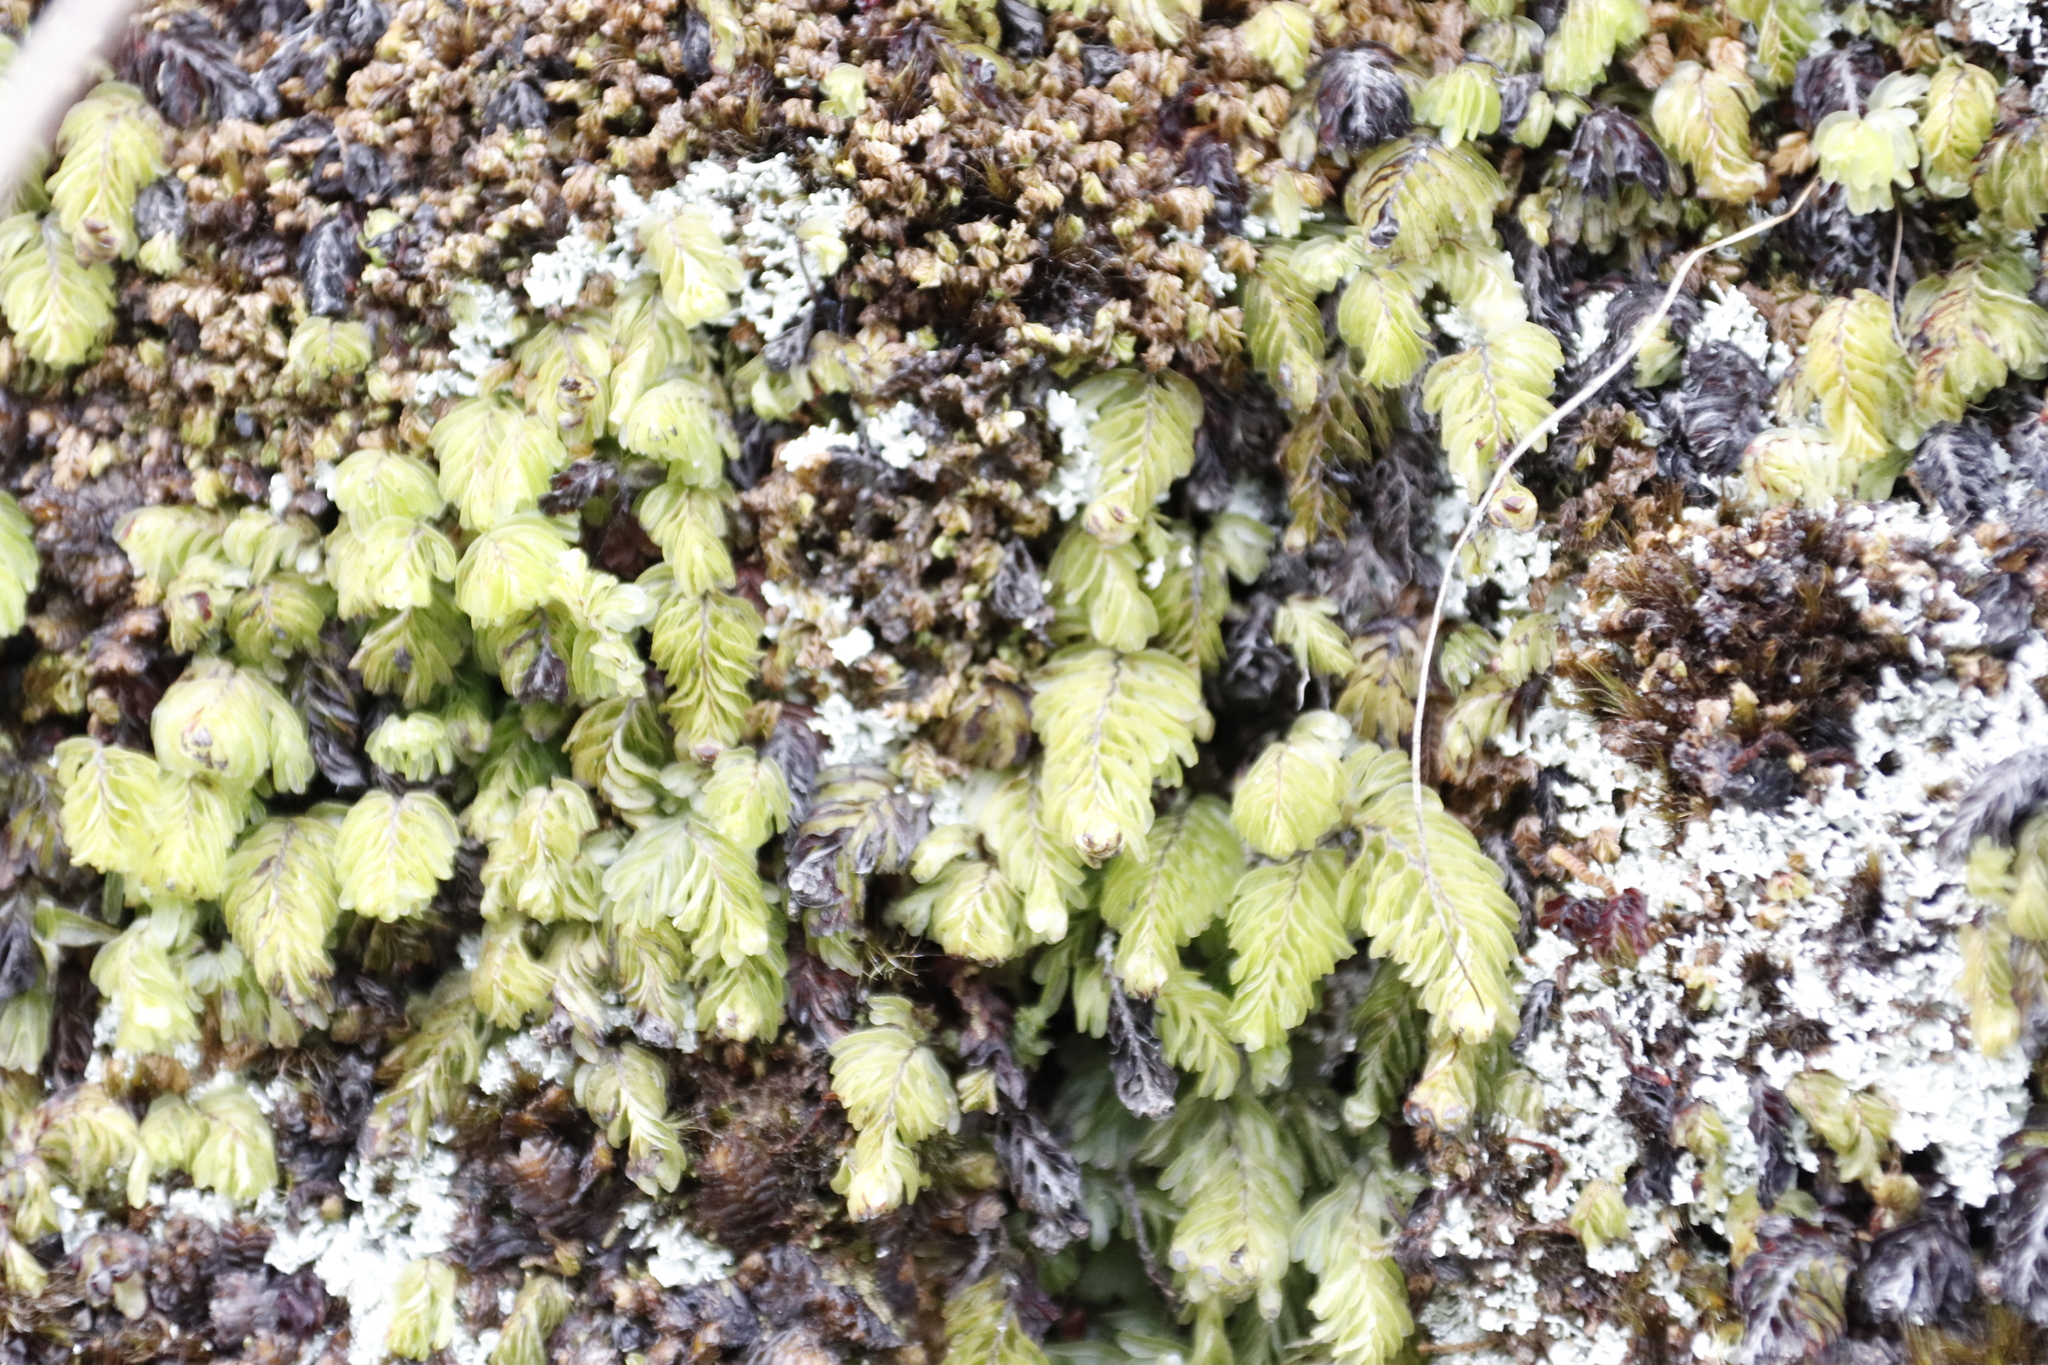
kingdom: Plantae
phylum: Tracheophyta
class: Polypodiopsida
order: Hymenophyllales
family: Hymenophyllaceae
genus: Hymenophyllum
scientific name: Hymenophyllum capense
